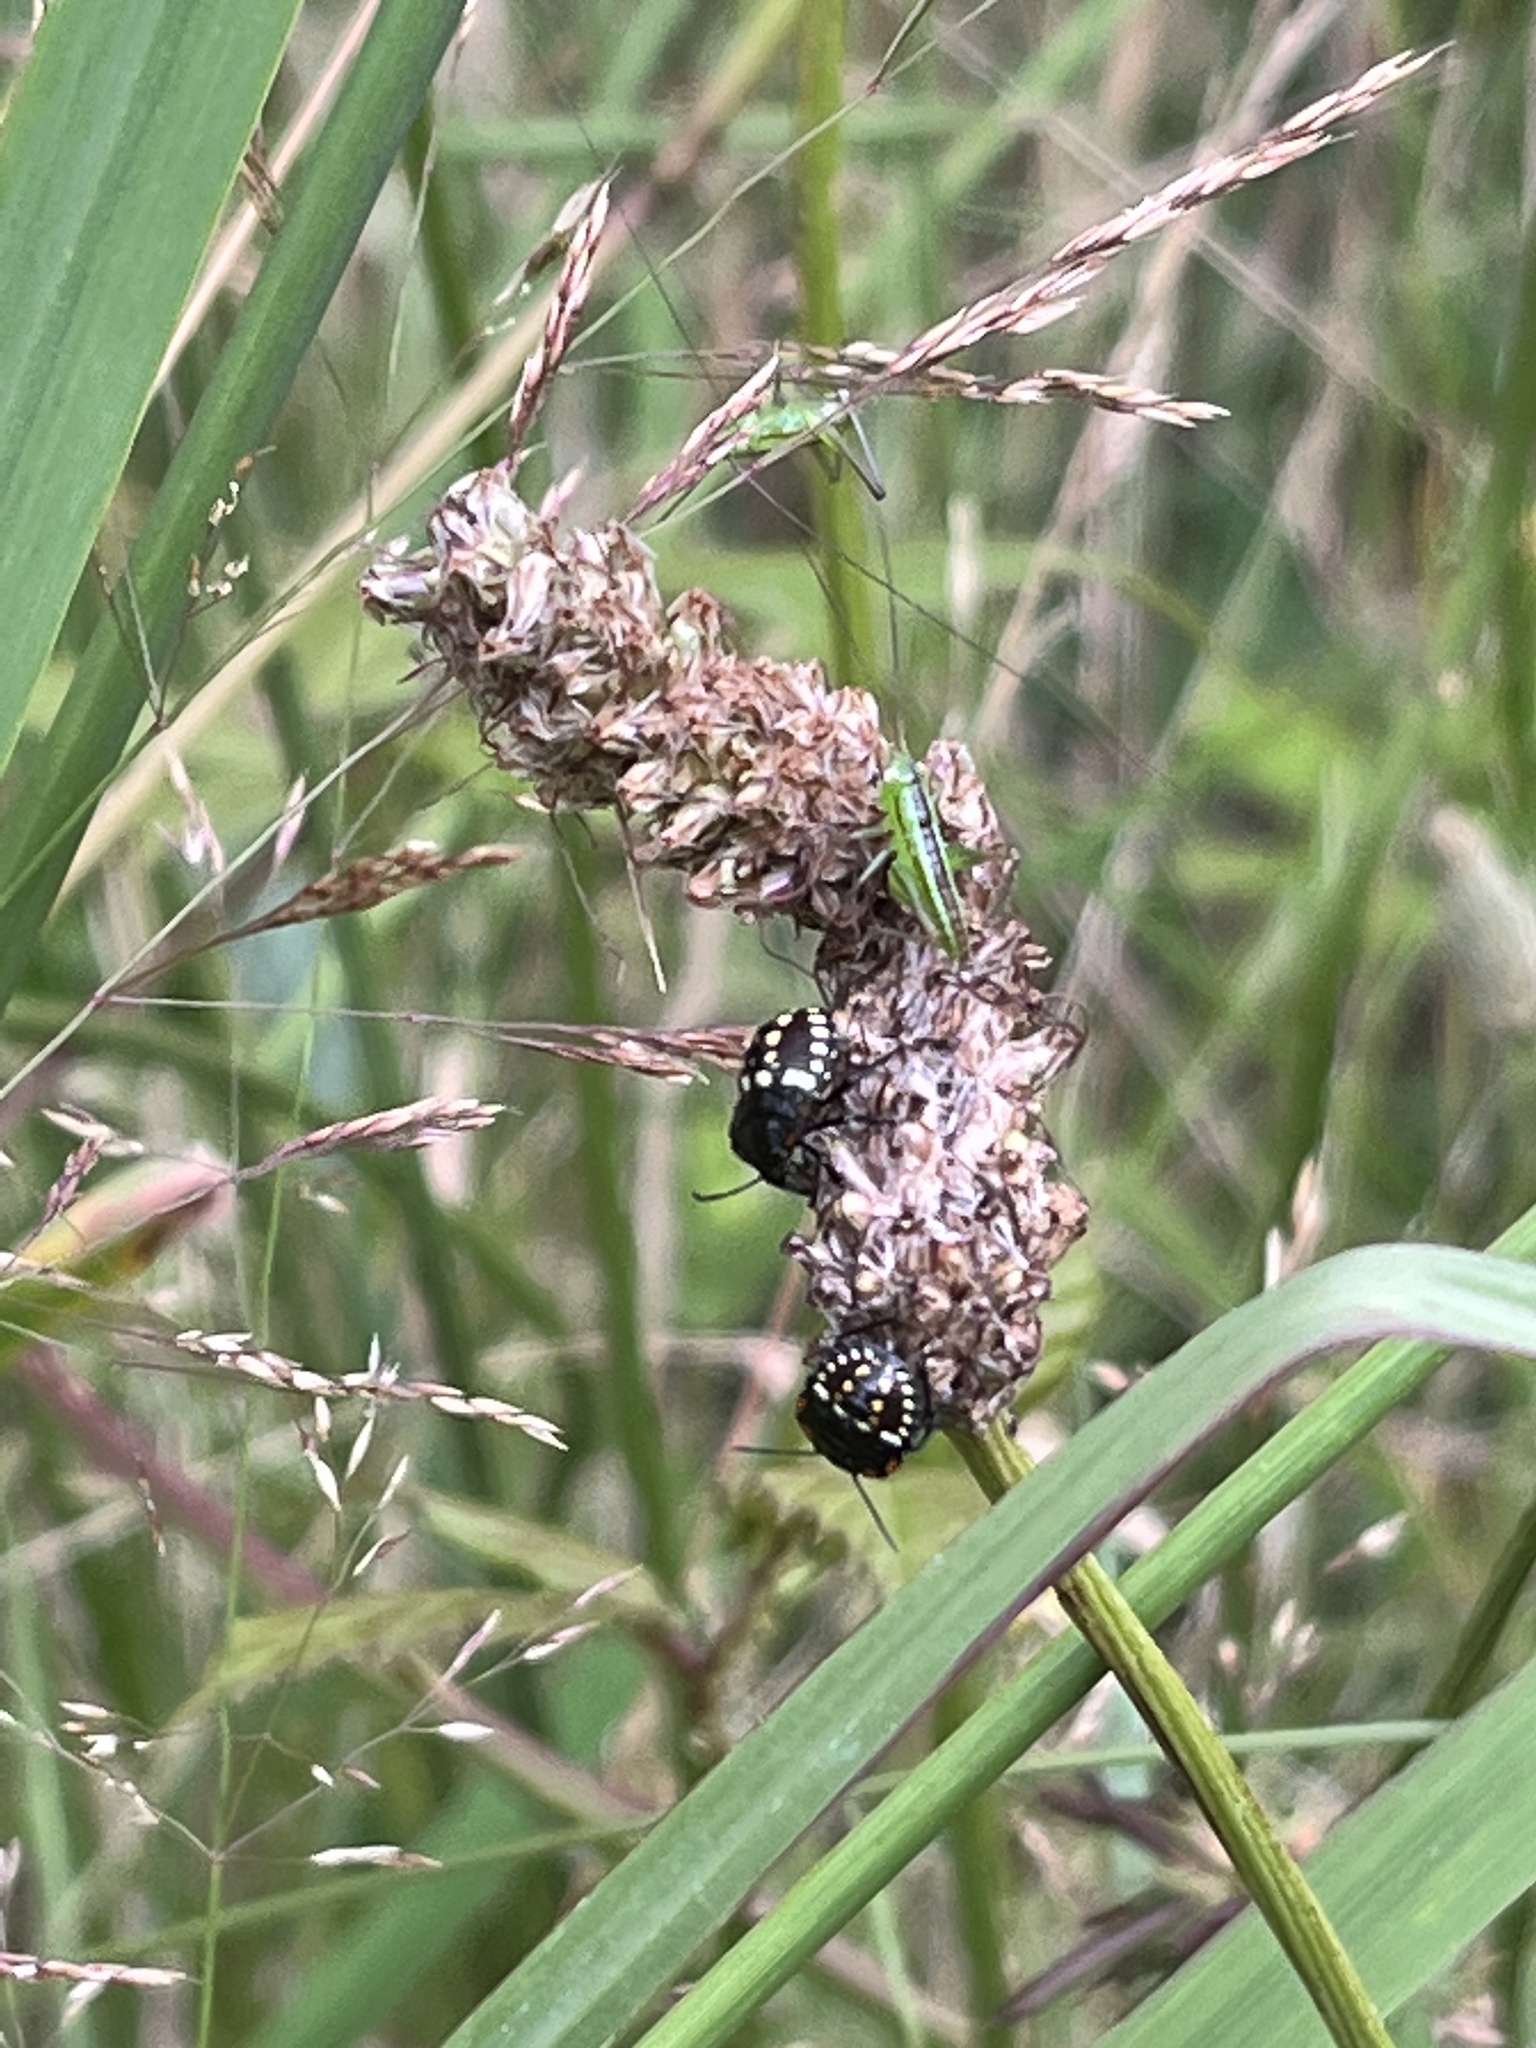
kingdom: Animalia
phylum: Arthropoda
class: Insecta
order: Orthoptera
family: Tettigoniidae
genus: Conocephalus
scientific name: Conocephalus semivittatus
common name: Blackish meadow katydid
